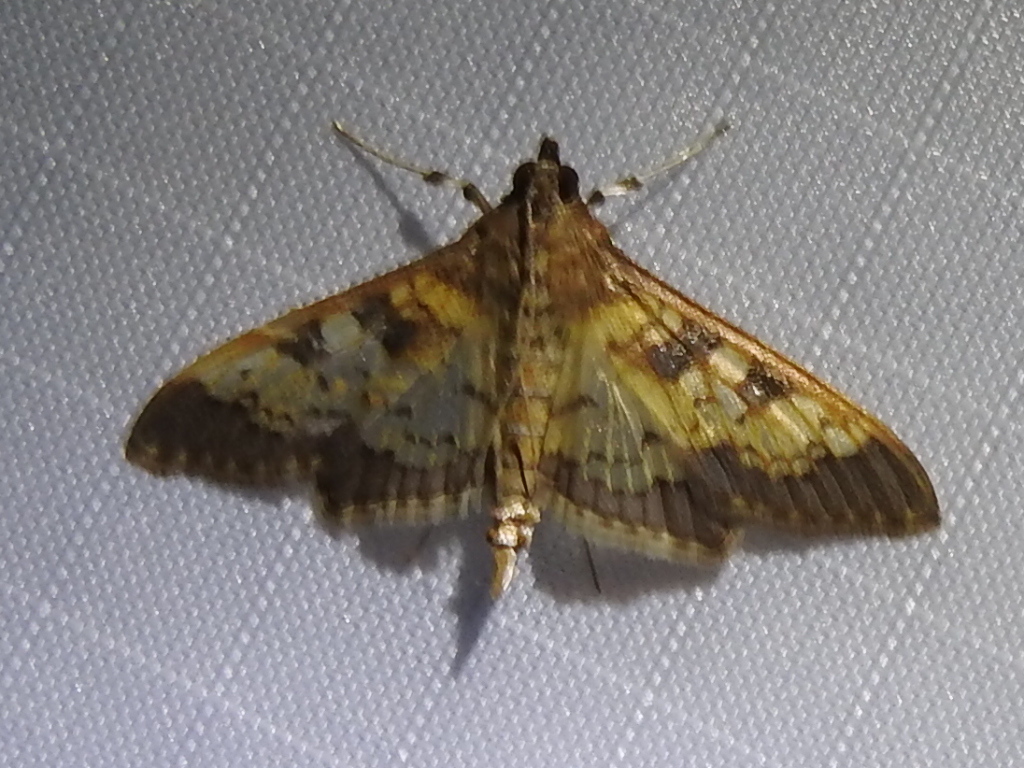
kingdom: Animalia
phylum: Arthropoda
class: Insecta
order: Lepidoptera
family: Crambidae
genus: Cryptographis
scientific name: Cryptographis elealis
